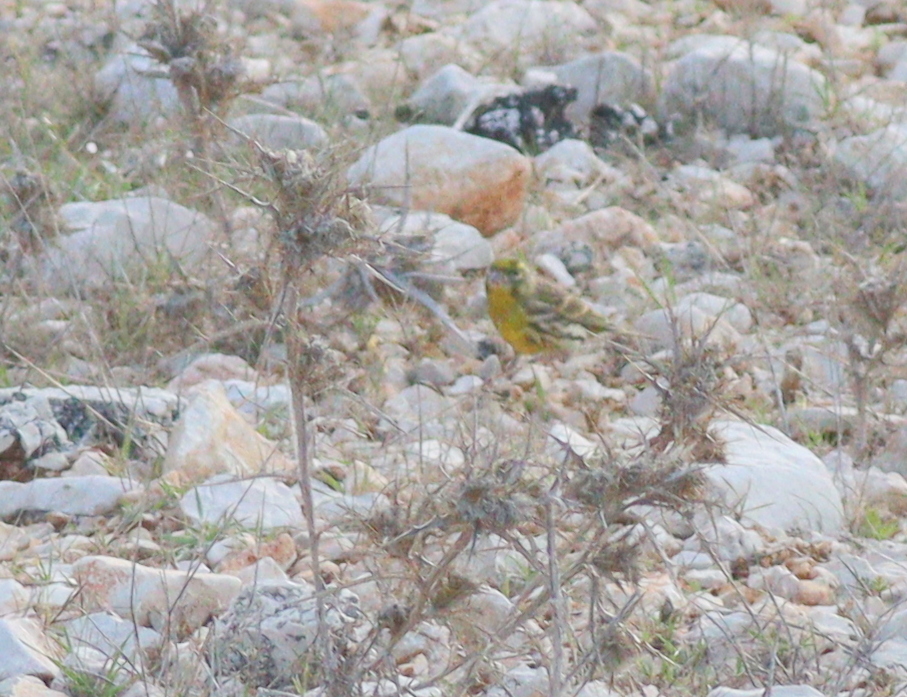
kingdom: Animalia
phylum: Chordata
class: Aves
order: Passeriformes
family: Fringillidae
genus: Serinus
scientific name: Serinus serinus
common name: European serin
